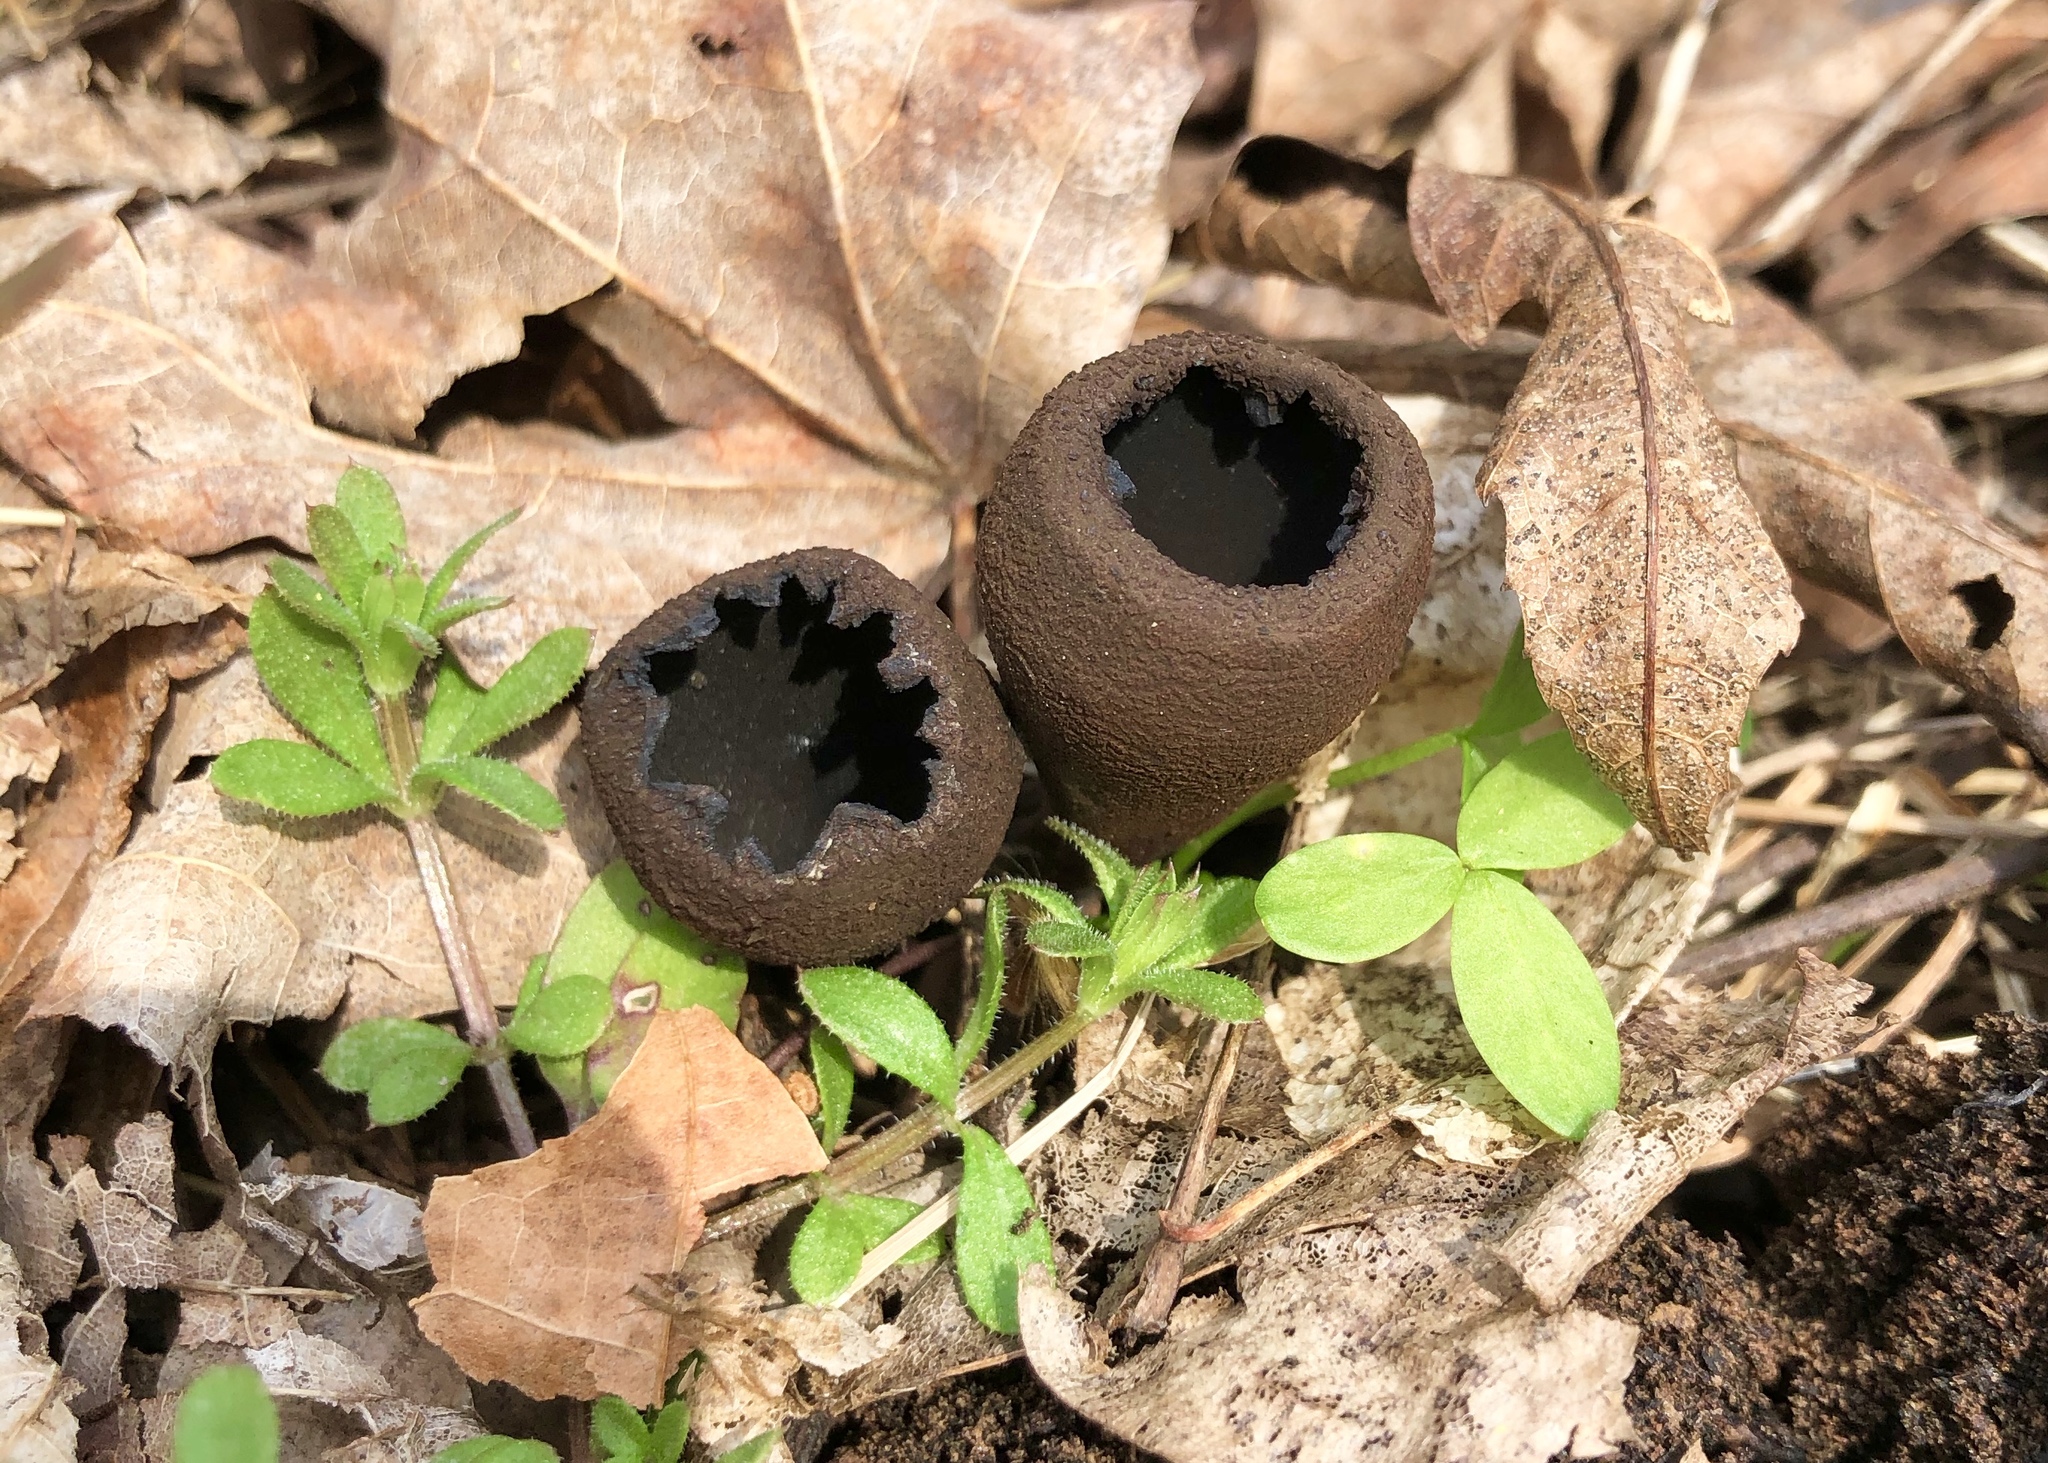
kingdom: Fungi
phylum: Ascomycota
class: Pezizomycetes
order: Pezizales
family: Sarcosomataceae
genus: Urnula
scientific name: Urnula craterium
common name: Devil's urn
